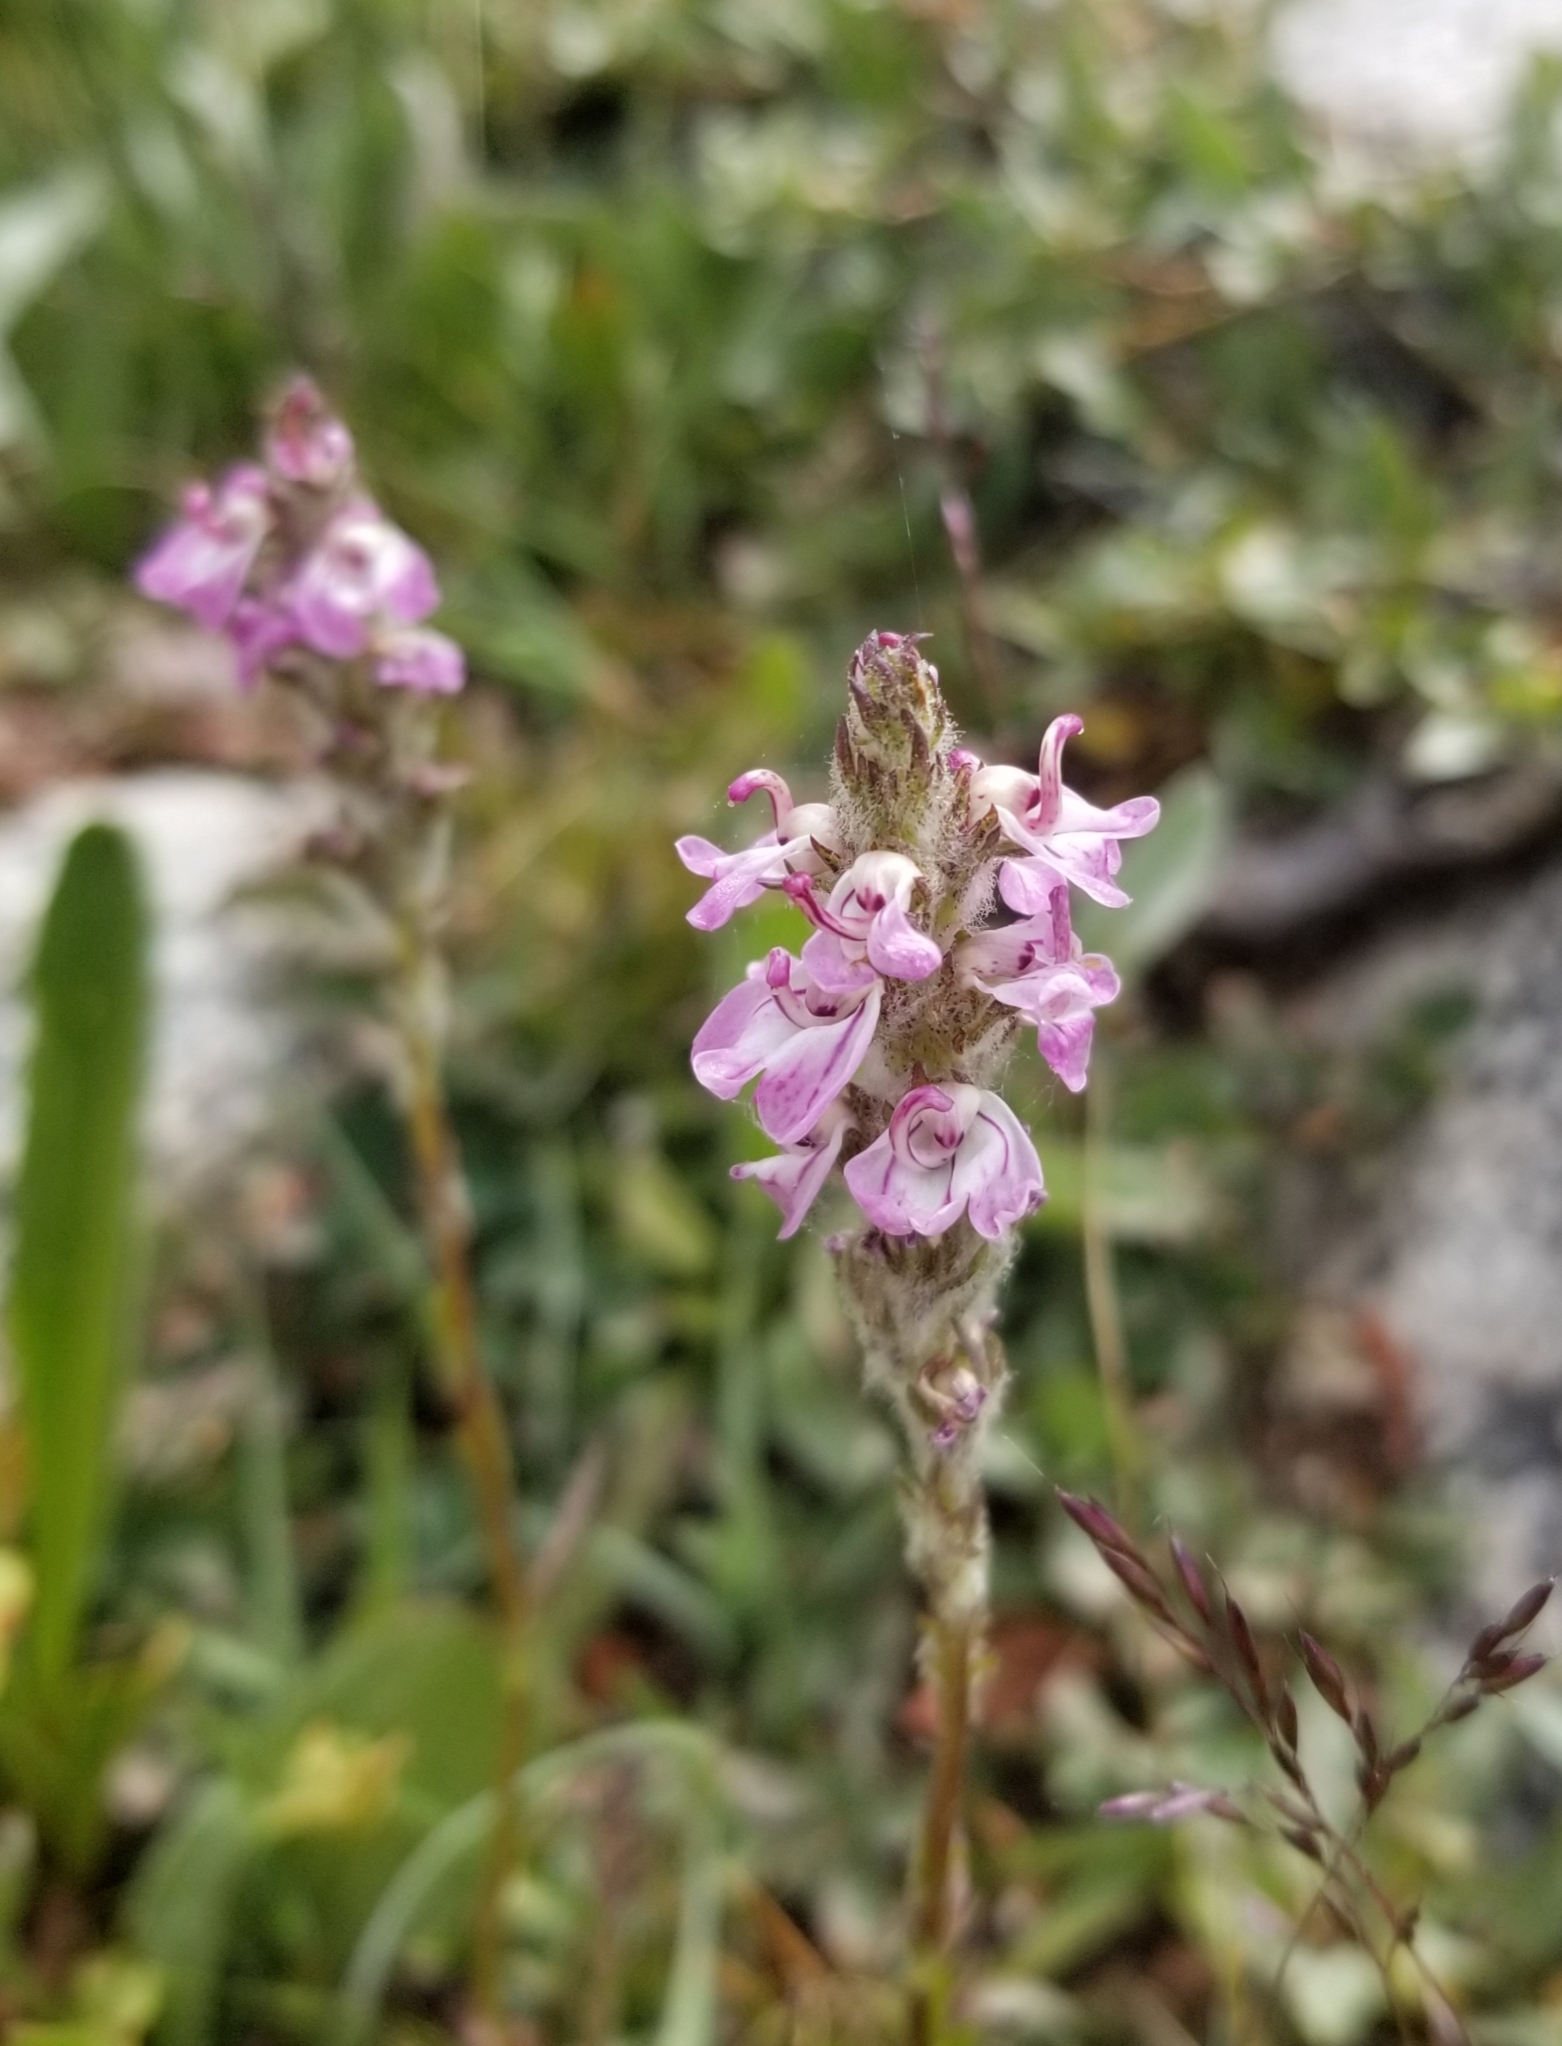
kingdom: Plantae
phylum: Tracheophyta
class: Magnoliopsida
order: Lamiales
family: Orobanchaceae
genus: Pedicularis
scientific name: Pedicularis attollens
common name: Slender pedicularis
